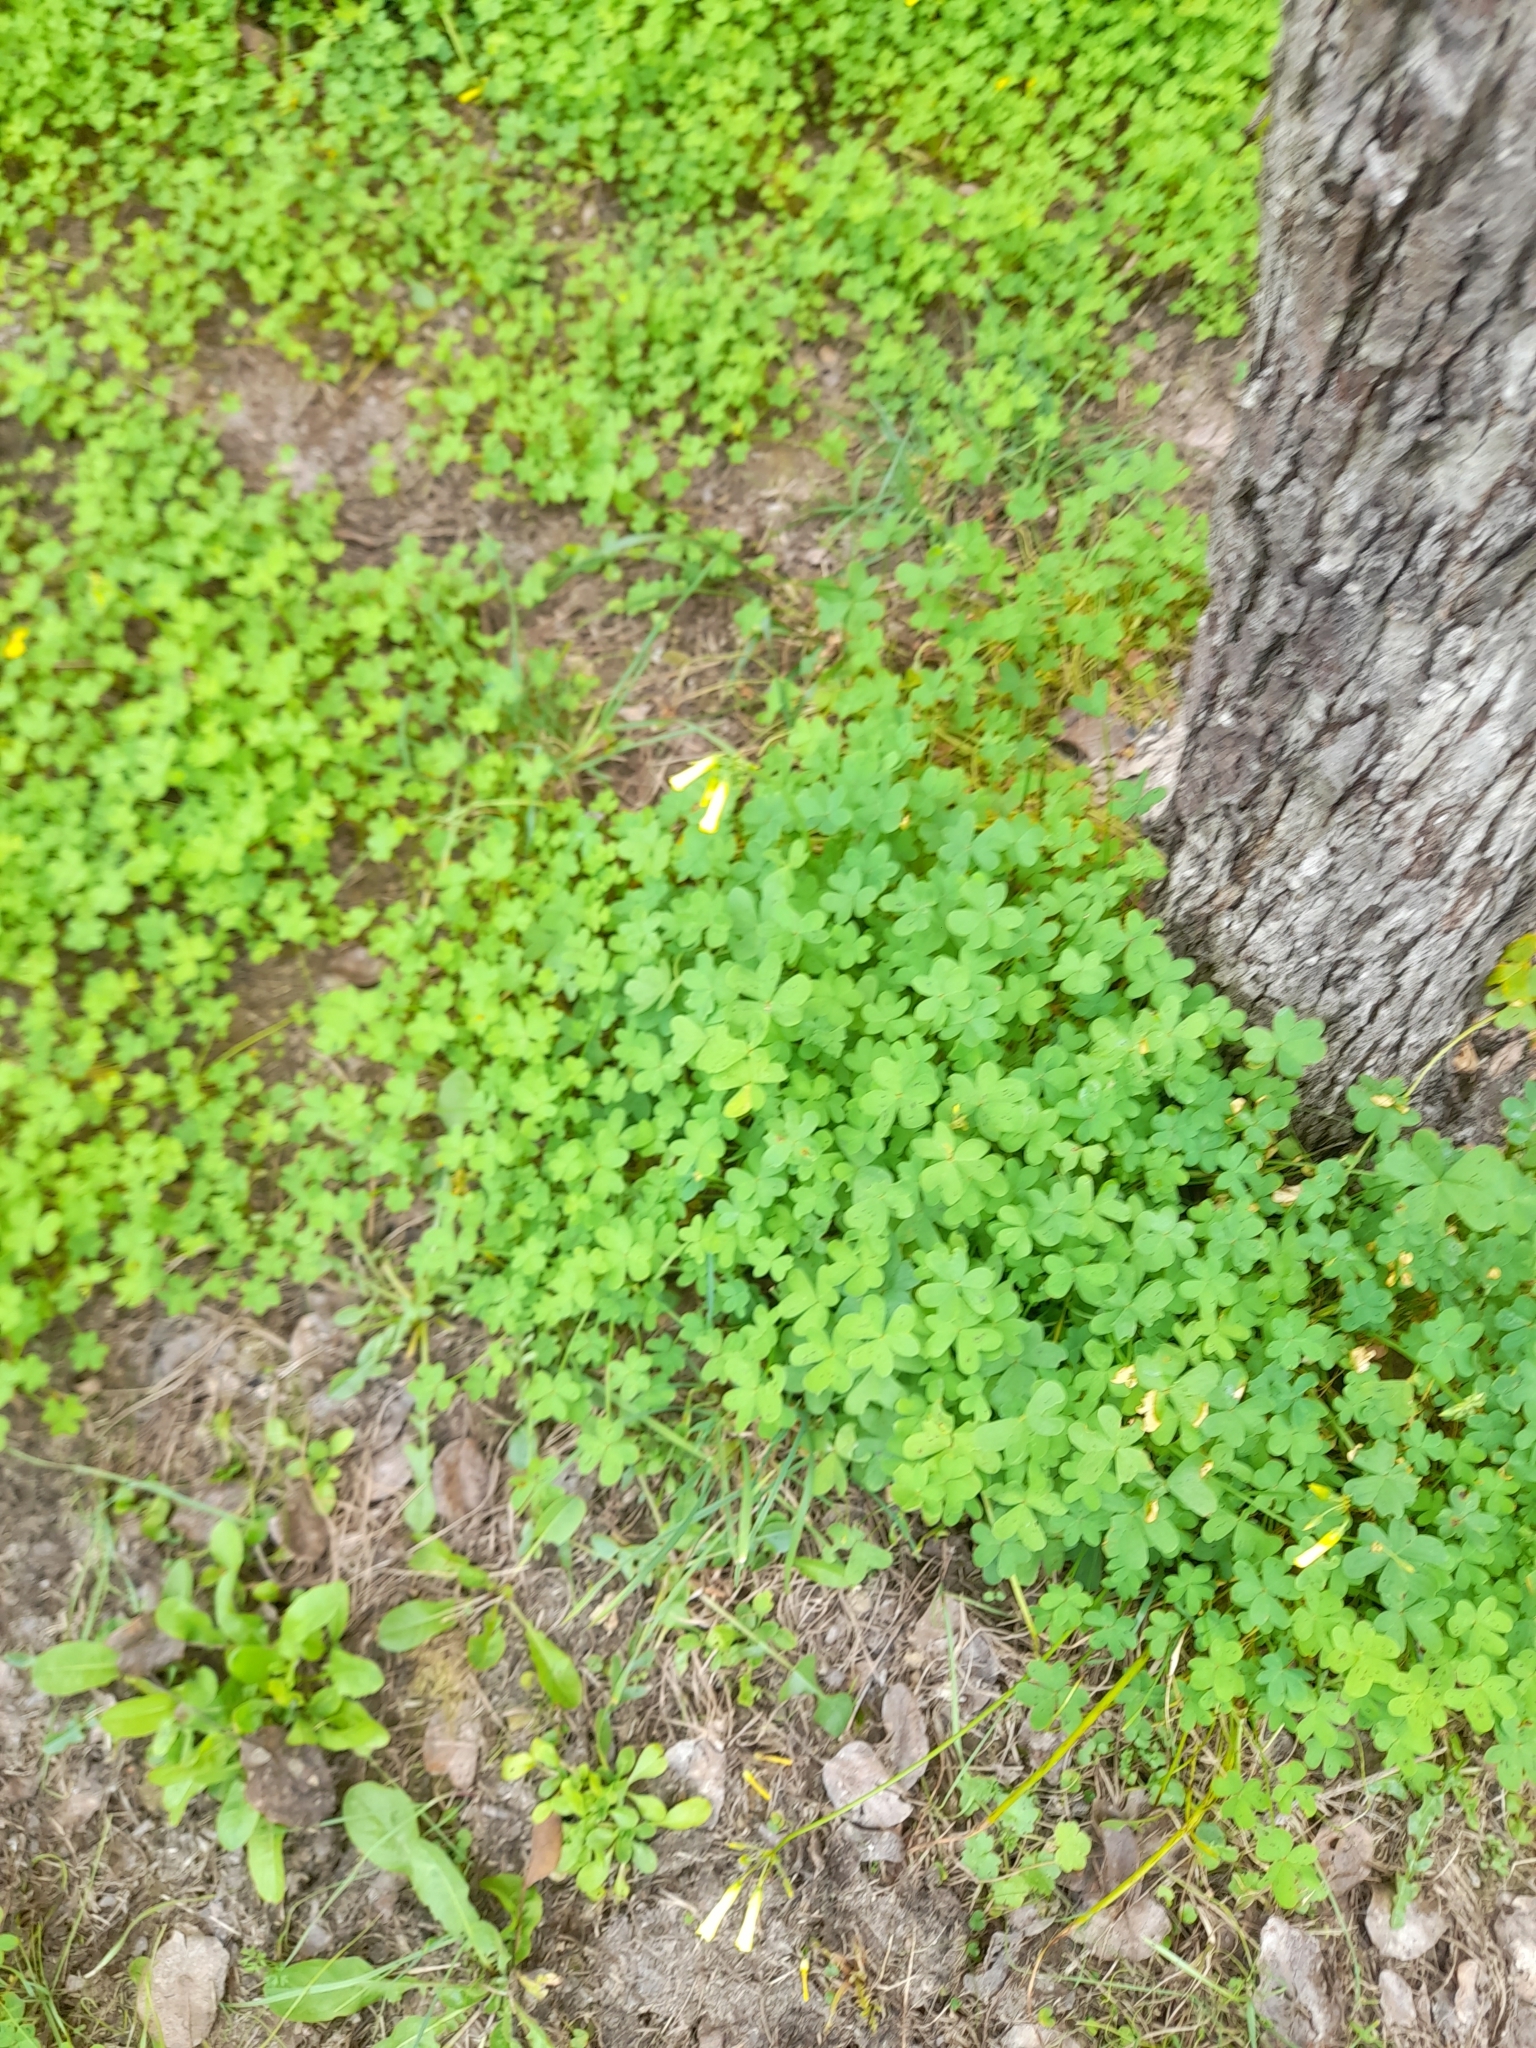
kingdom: Plantae
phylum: Tracheophyta
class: Magnoliopsida
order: Oxalidales
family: Oxalidaceae
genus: Oxalis
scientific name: Oxalis pes-caprae
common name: Bermuda-buttercup
